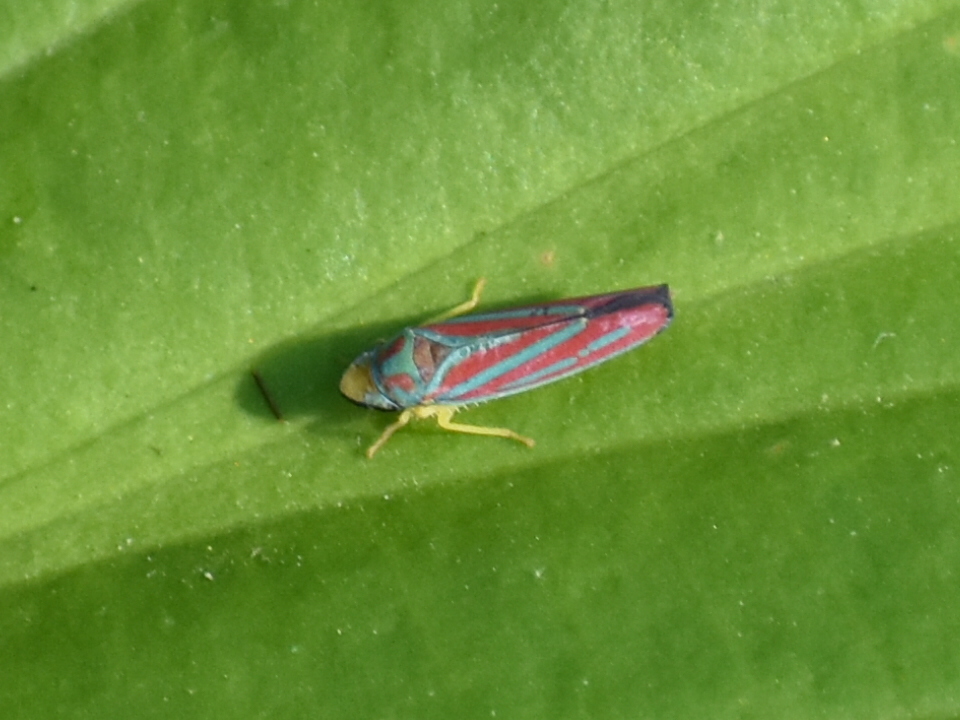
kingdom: Animalia
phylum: Arthropoda
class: Insecta
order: Hemiptera
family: Cicadellidae
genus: Graphocephala
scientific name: Graphocephala coccinea
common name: Candy-striped leafhopper
